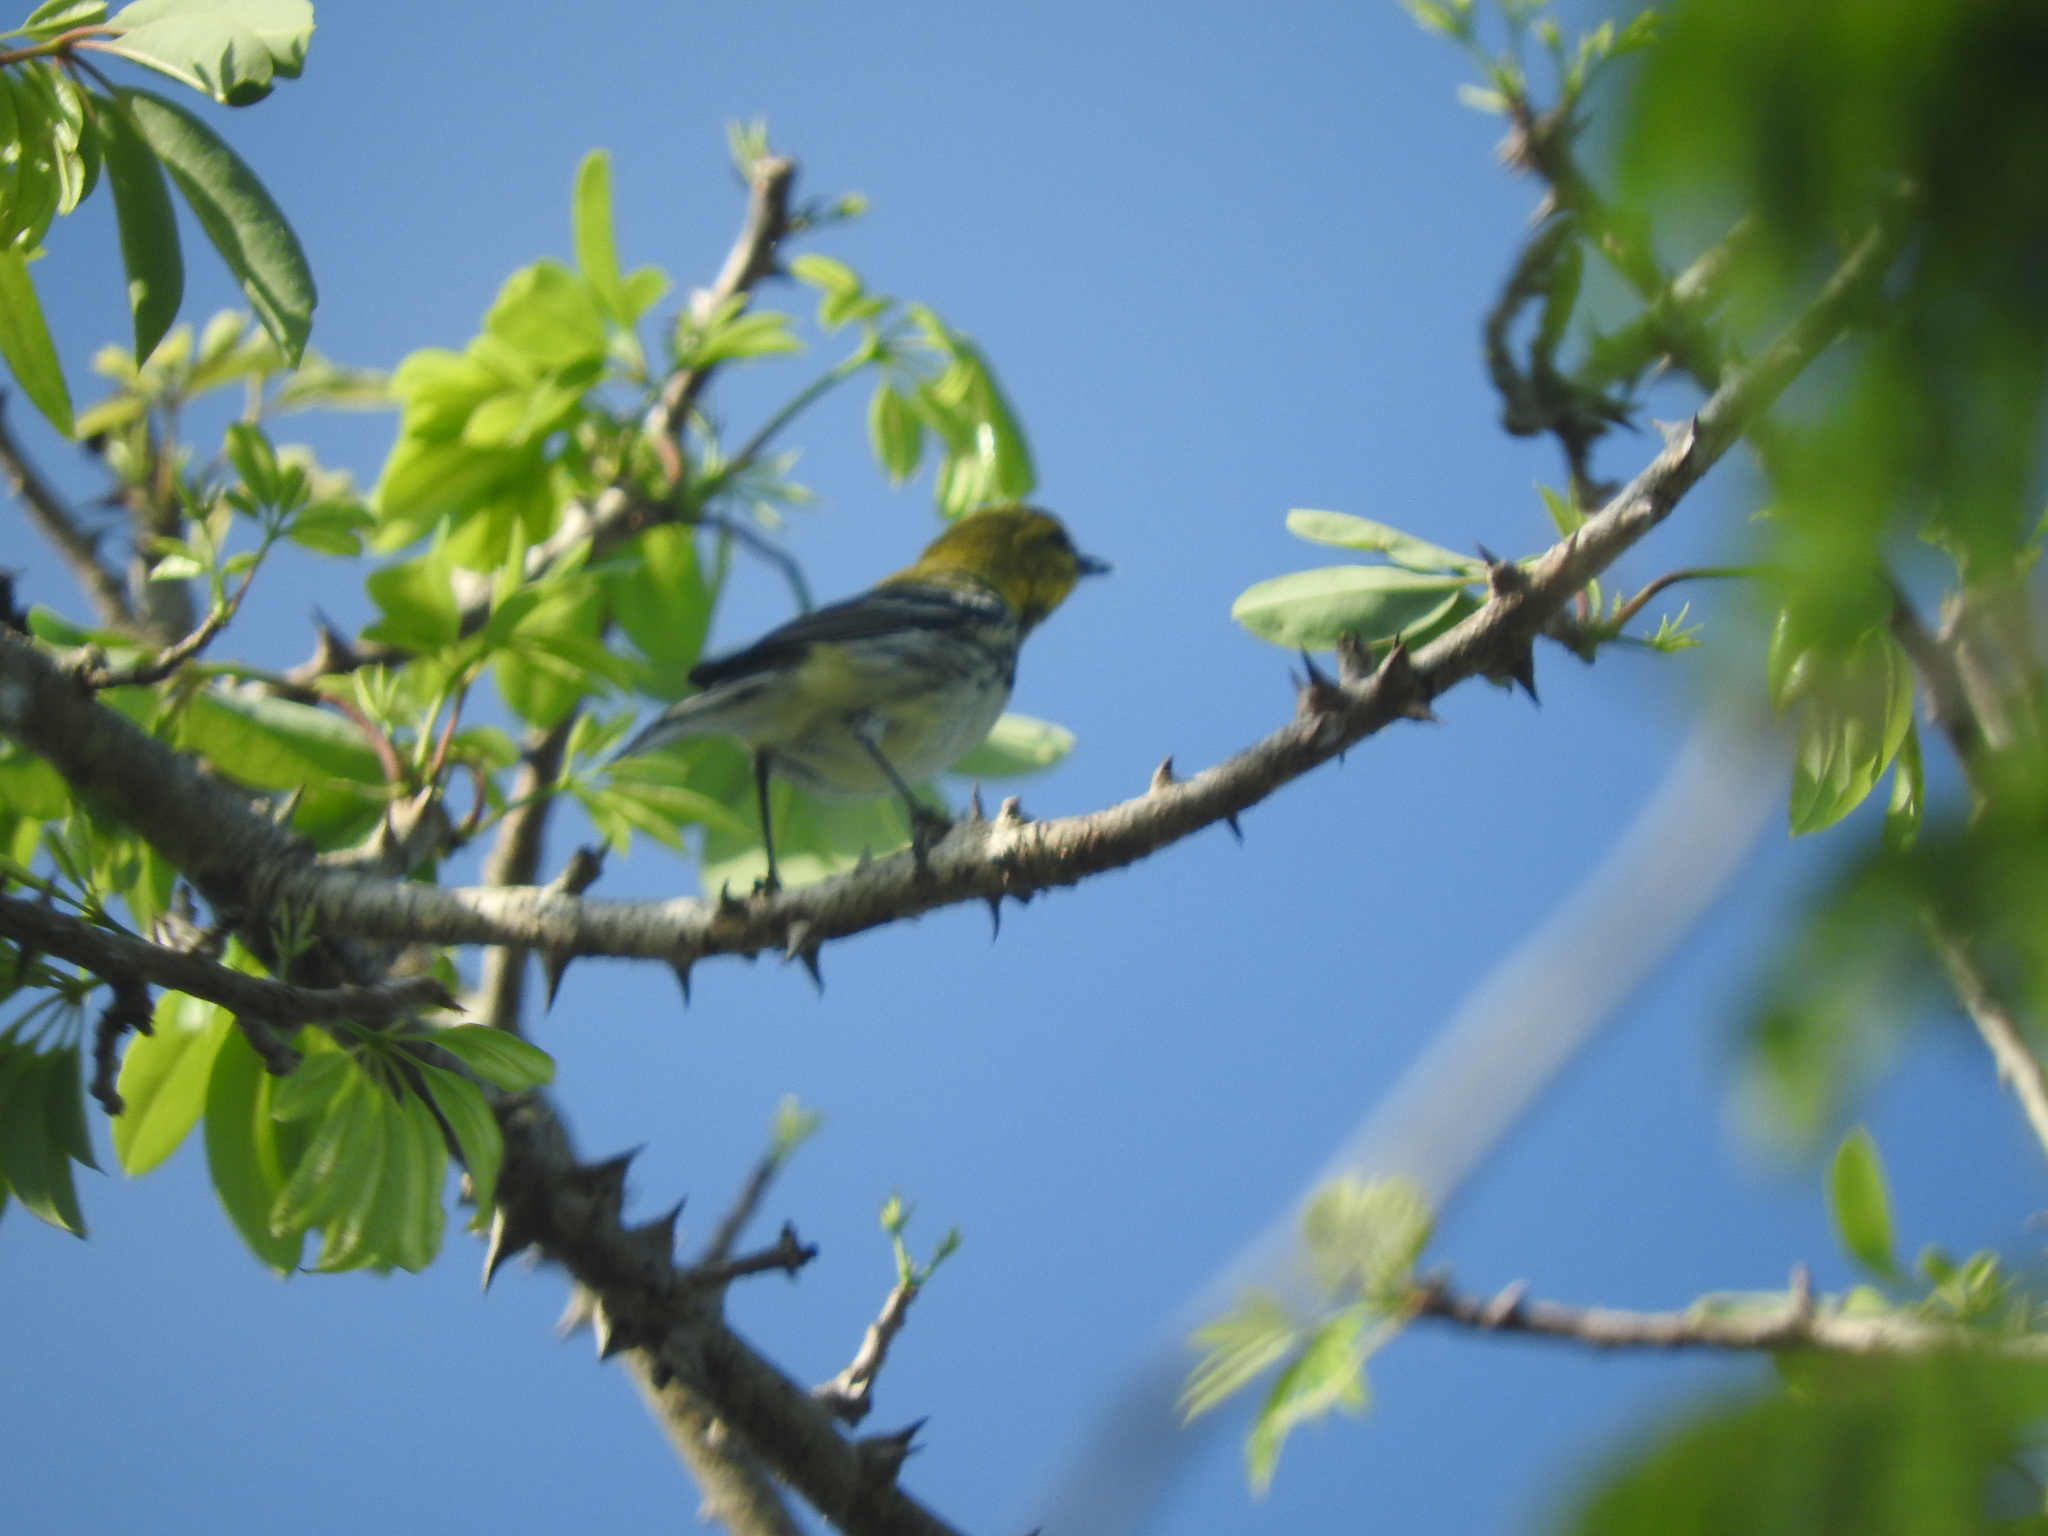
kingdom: Animalia
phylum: Chordata
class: Aves
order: Passeriformes
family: Parulidae
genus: Setophaga
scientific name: Setophaga virens
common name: Black-throated green warbler
